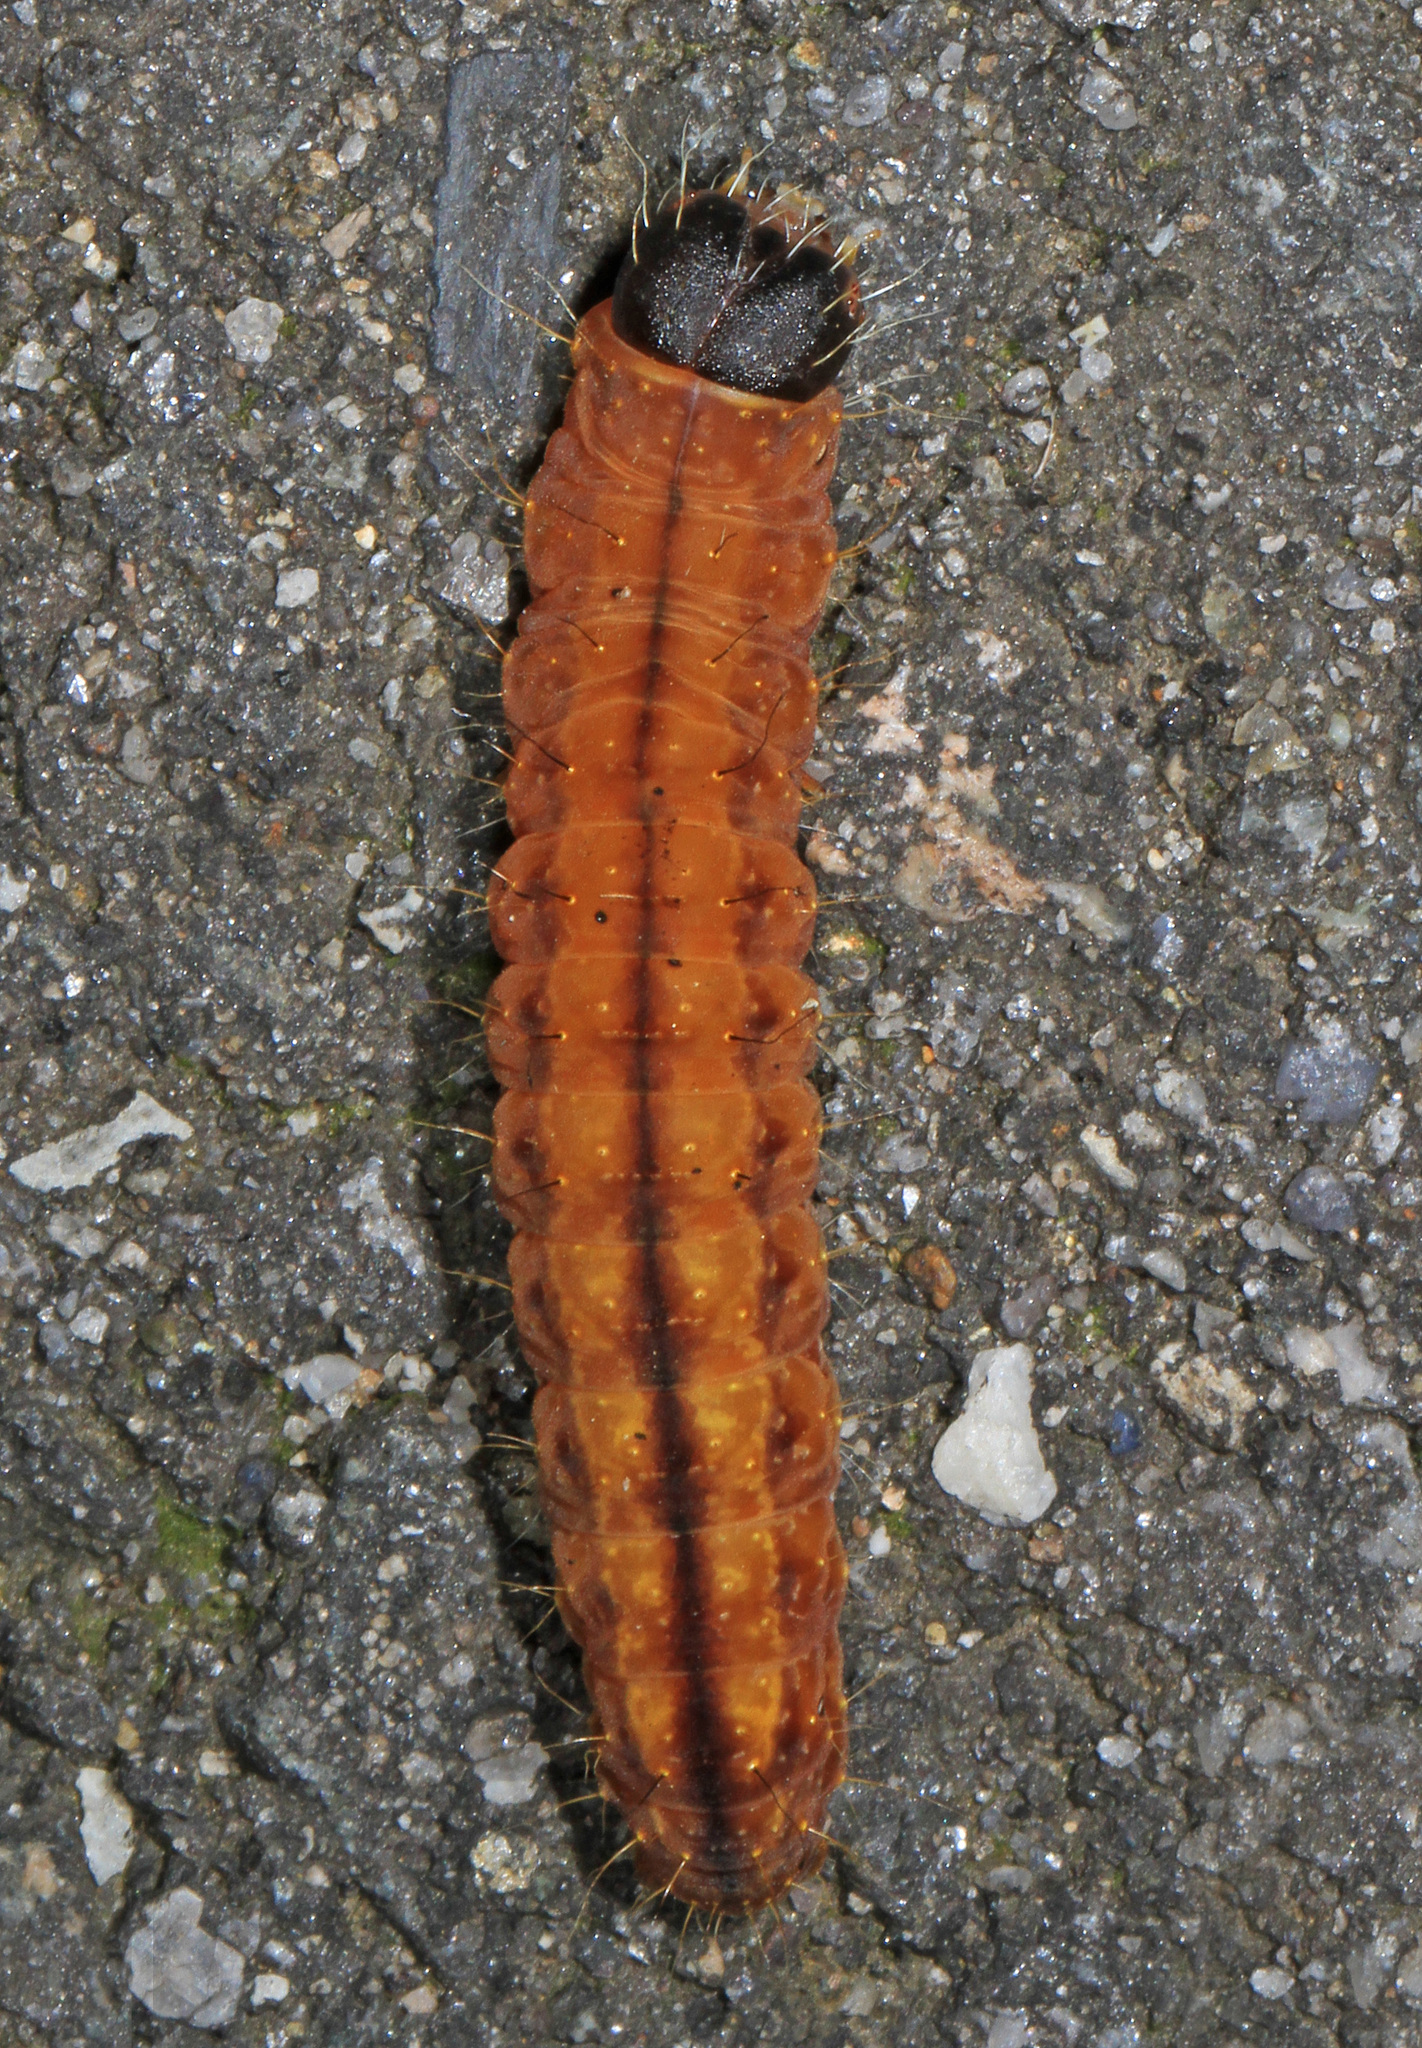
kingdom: Animalia
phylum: Arthropoda
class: Insecta
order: Lepidoptera
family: Noctuidae
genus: Acronicta
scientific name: Acronicta afflicta
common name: Afflicted dagger moth
